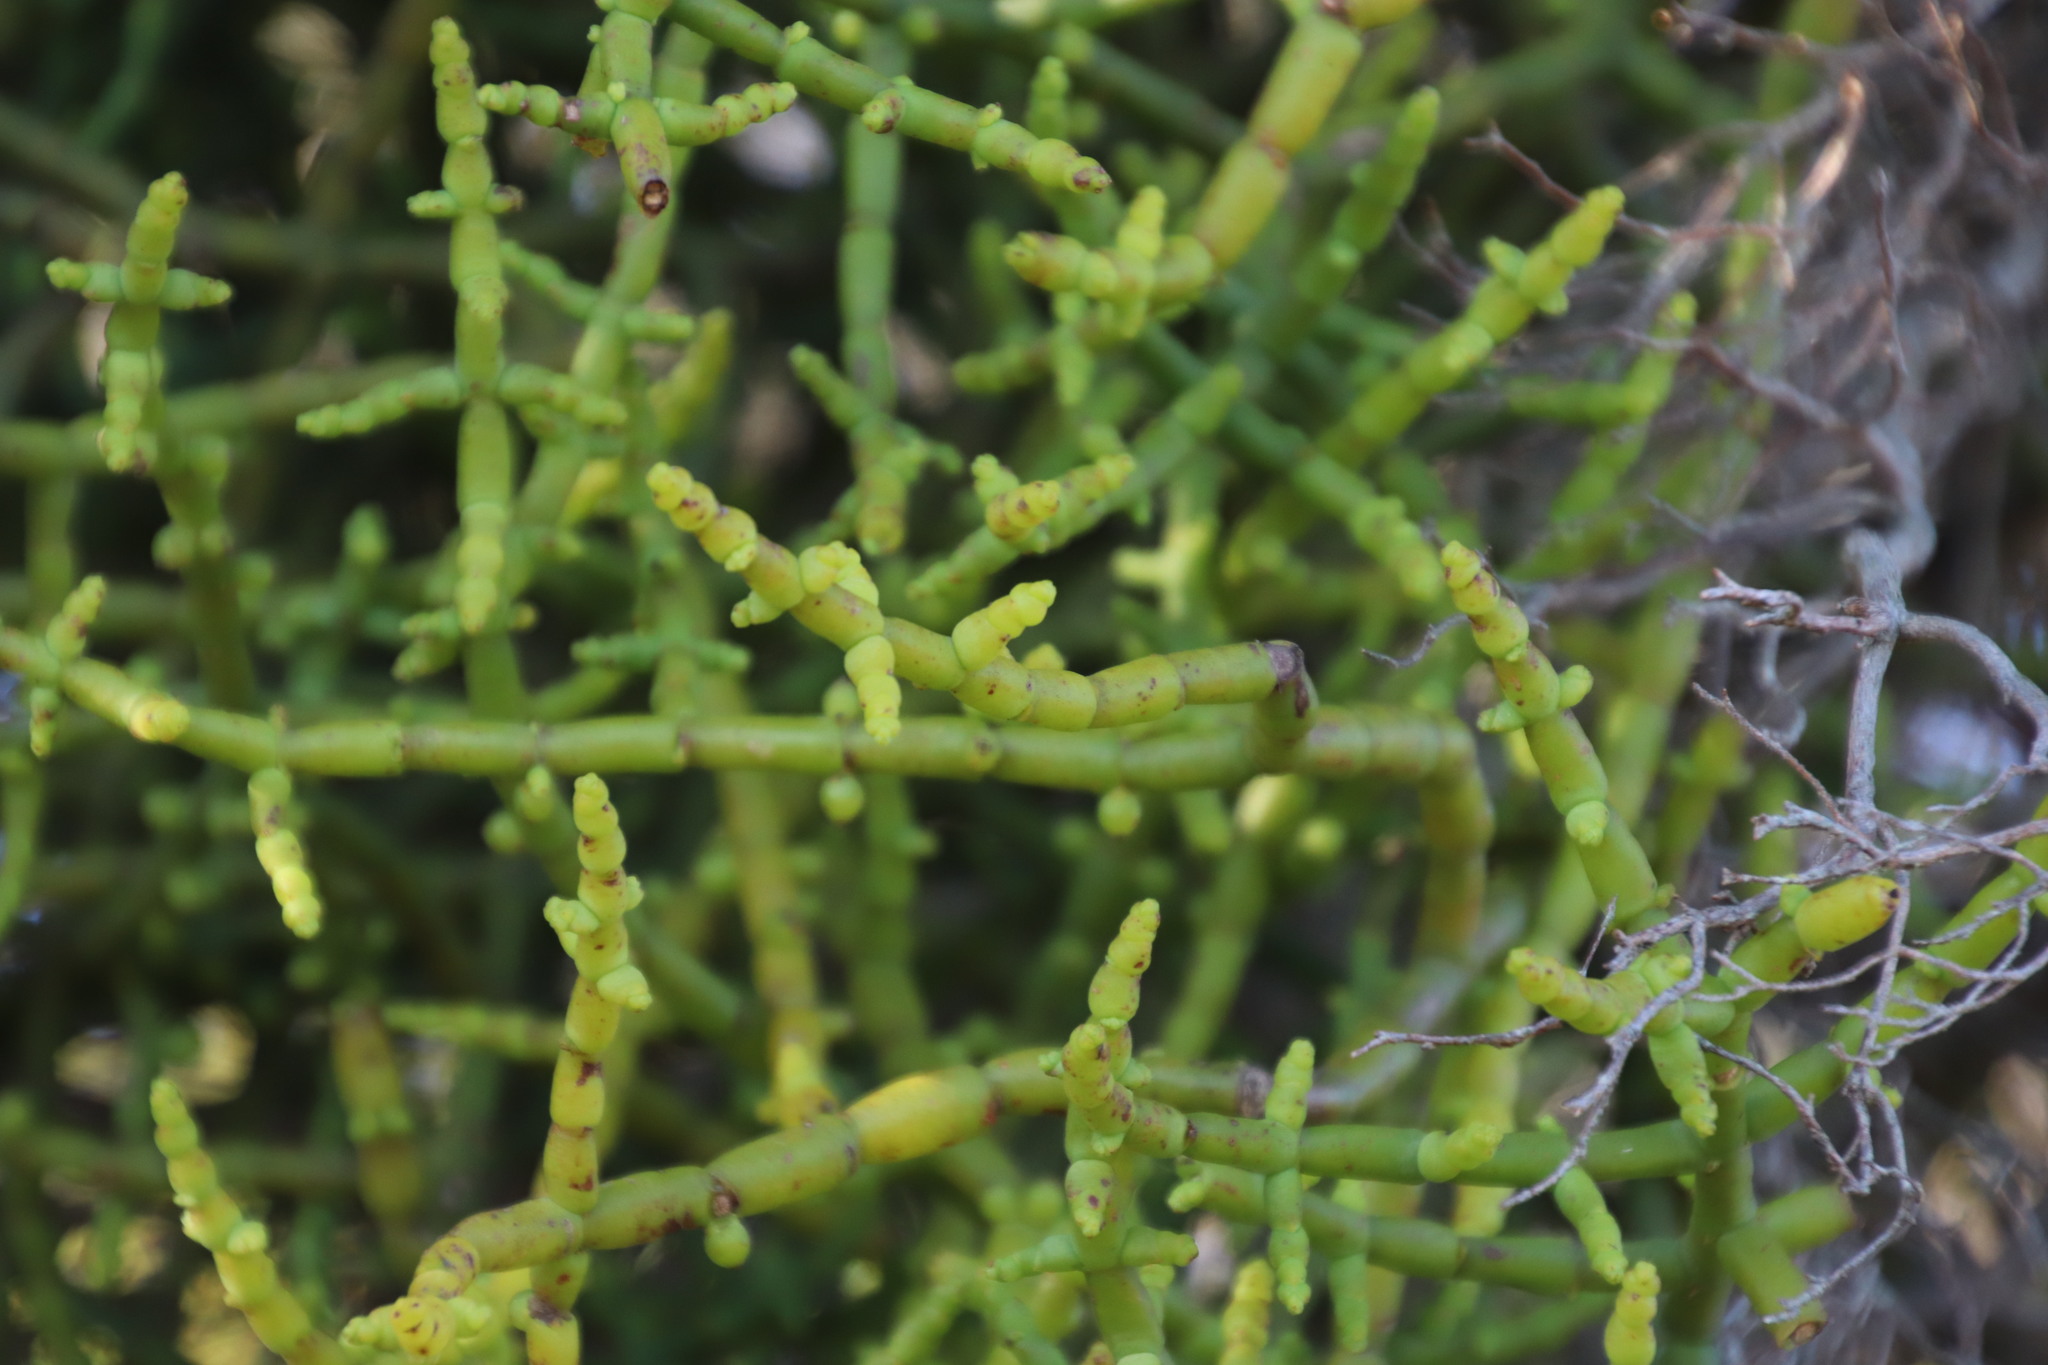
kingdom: Plantae
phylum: Tracheophyta
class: Magnoliopsida
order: Santalales
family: Viscaceae
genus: Viscum
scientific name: Viscum capense
